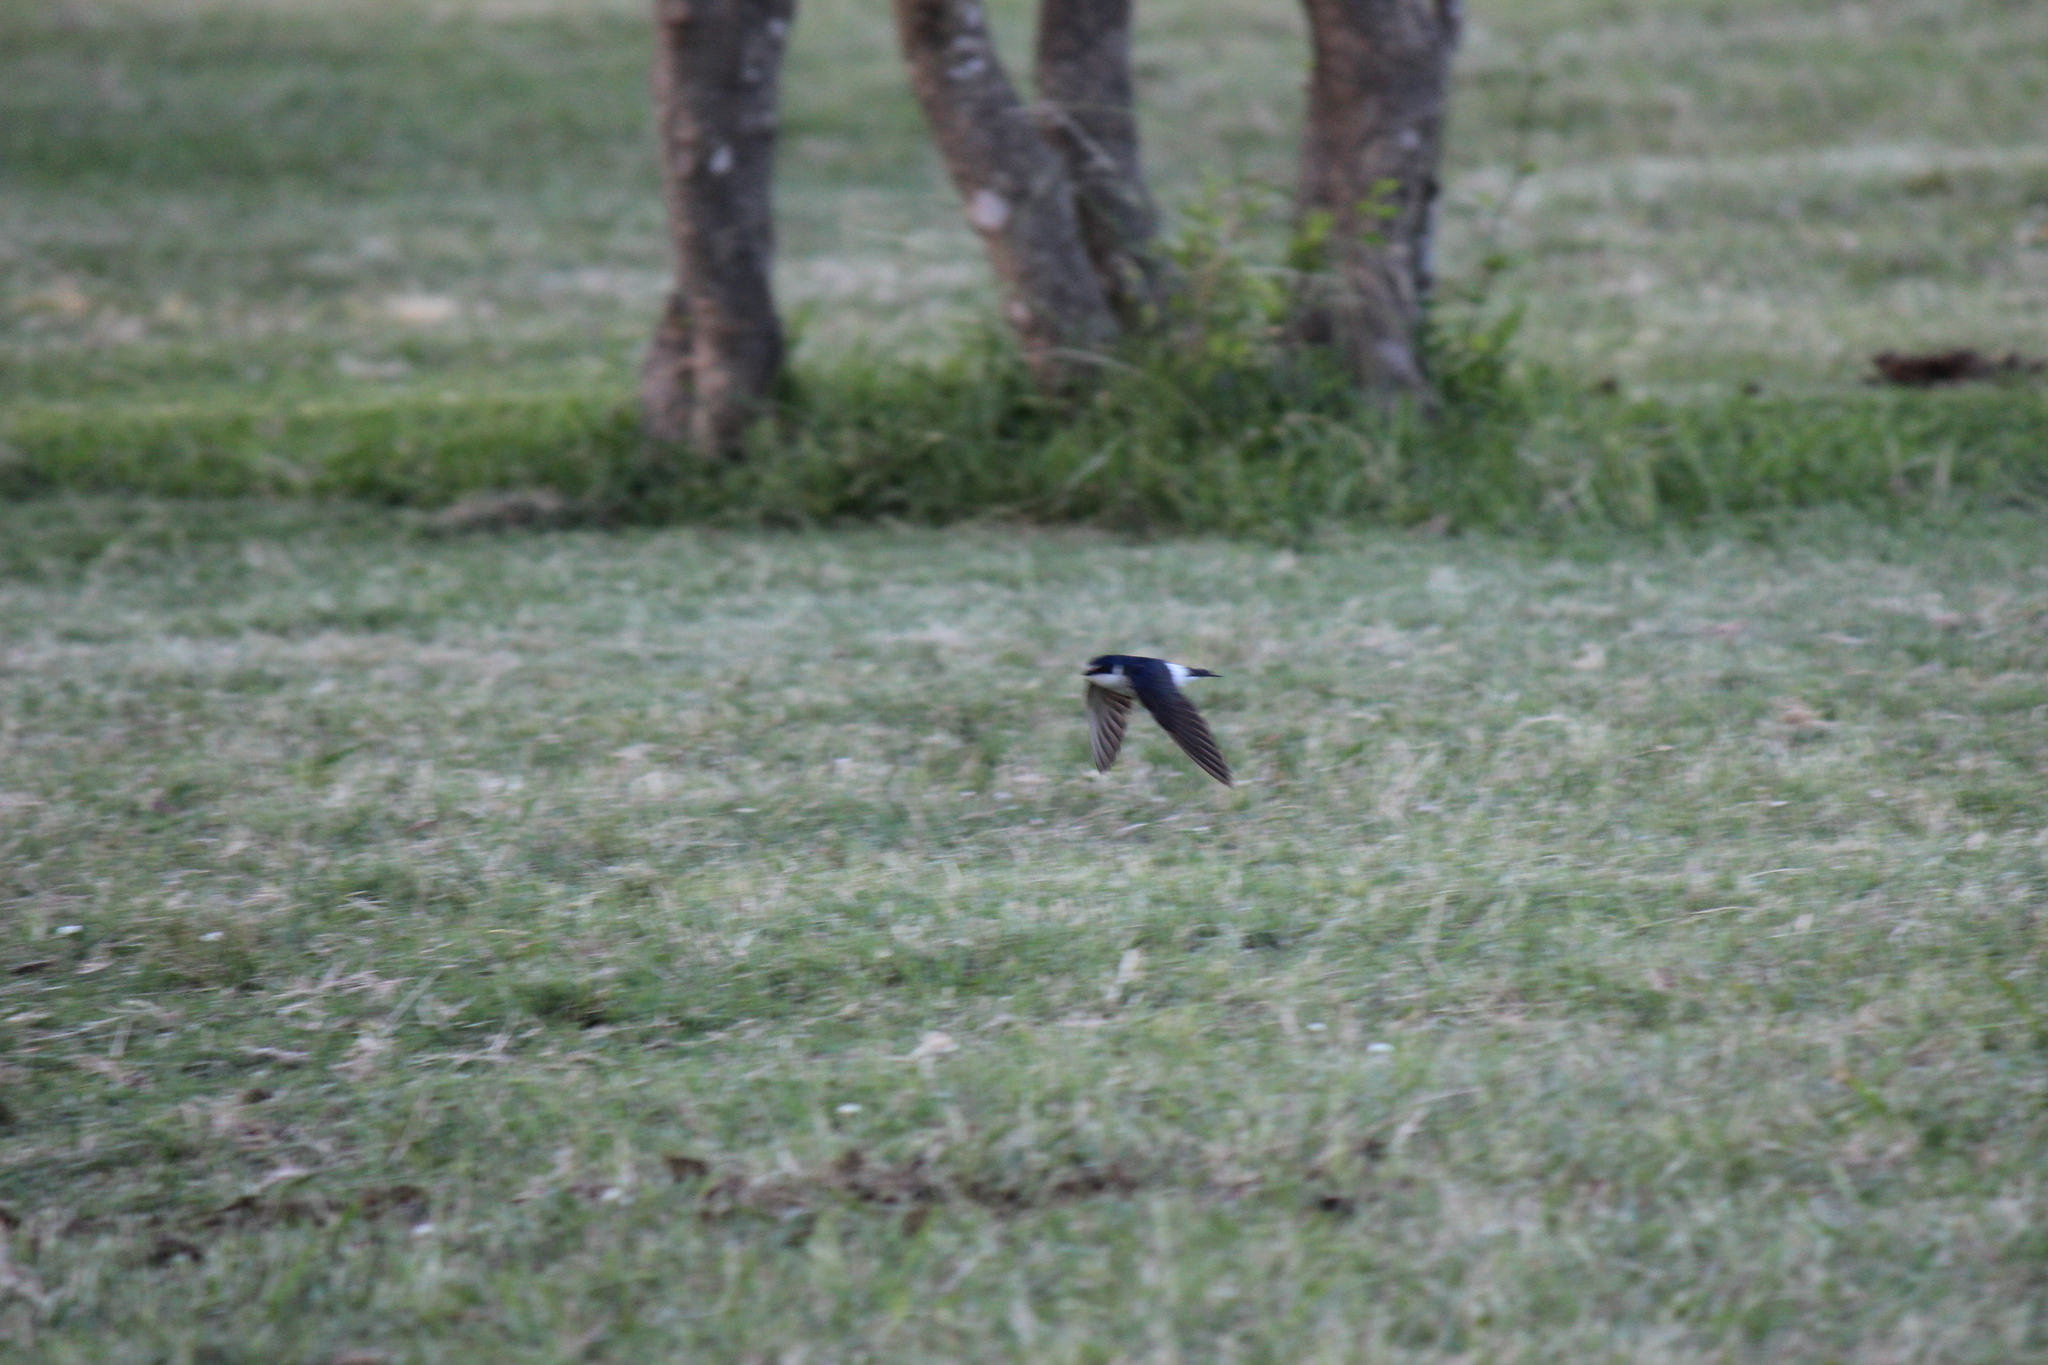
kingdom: Animalia
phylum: Chordata
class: Aves
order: Passeriformes
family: Hirundinidae
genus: Tachycineta
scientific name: Tachycineta leucorrhoa
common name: White-rumped swallow
